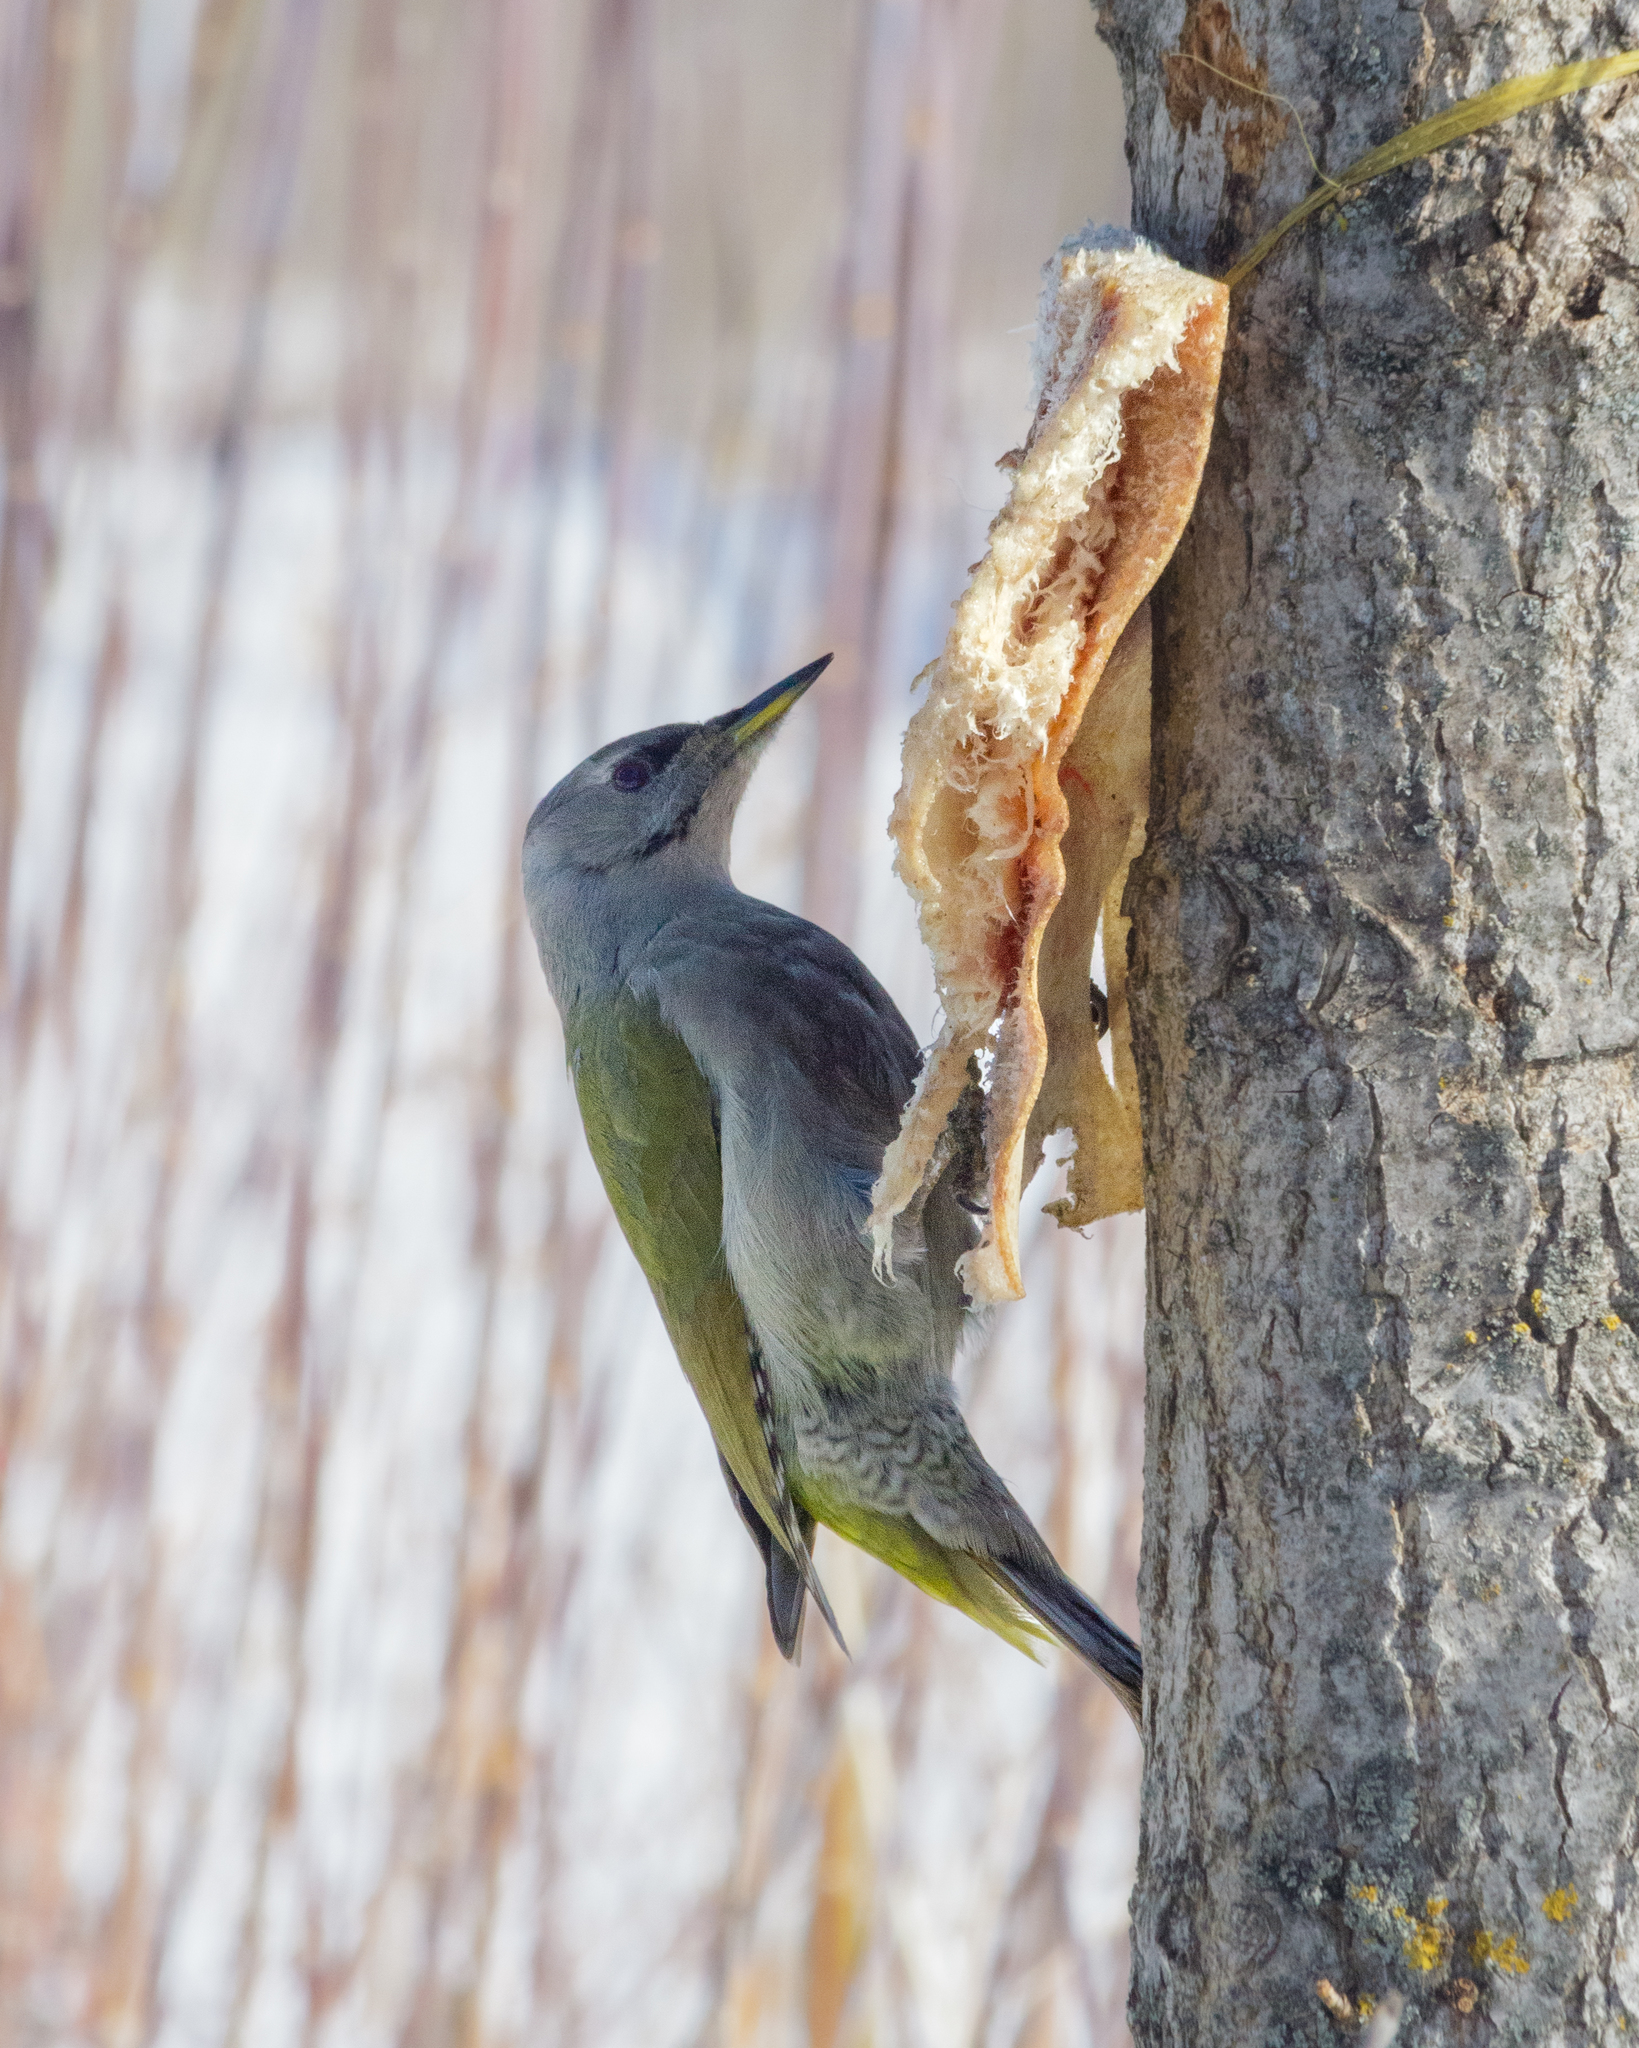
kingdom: Animalia
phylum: Chordata
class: Aves
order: Piciformes
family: Picidae
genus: Picus
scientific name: Picus canus
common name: Grey-headed woodpecker
